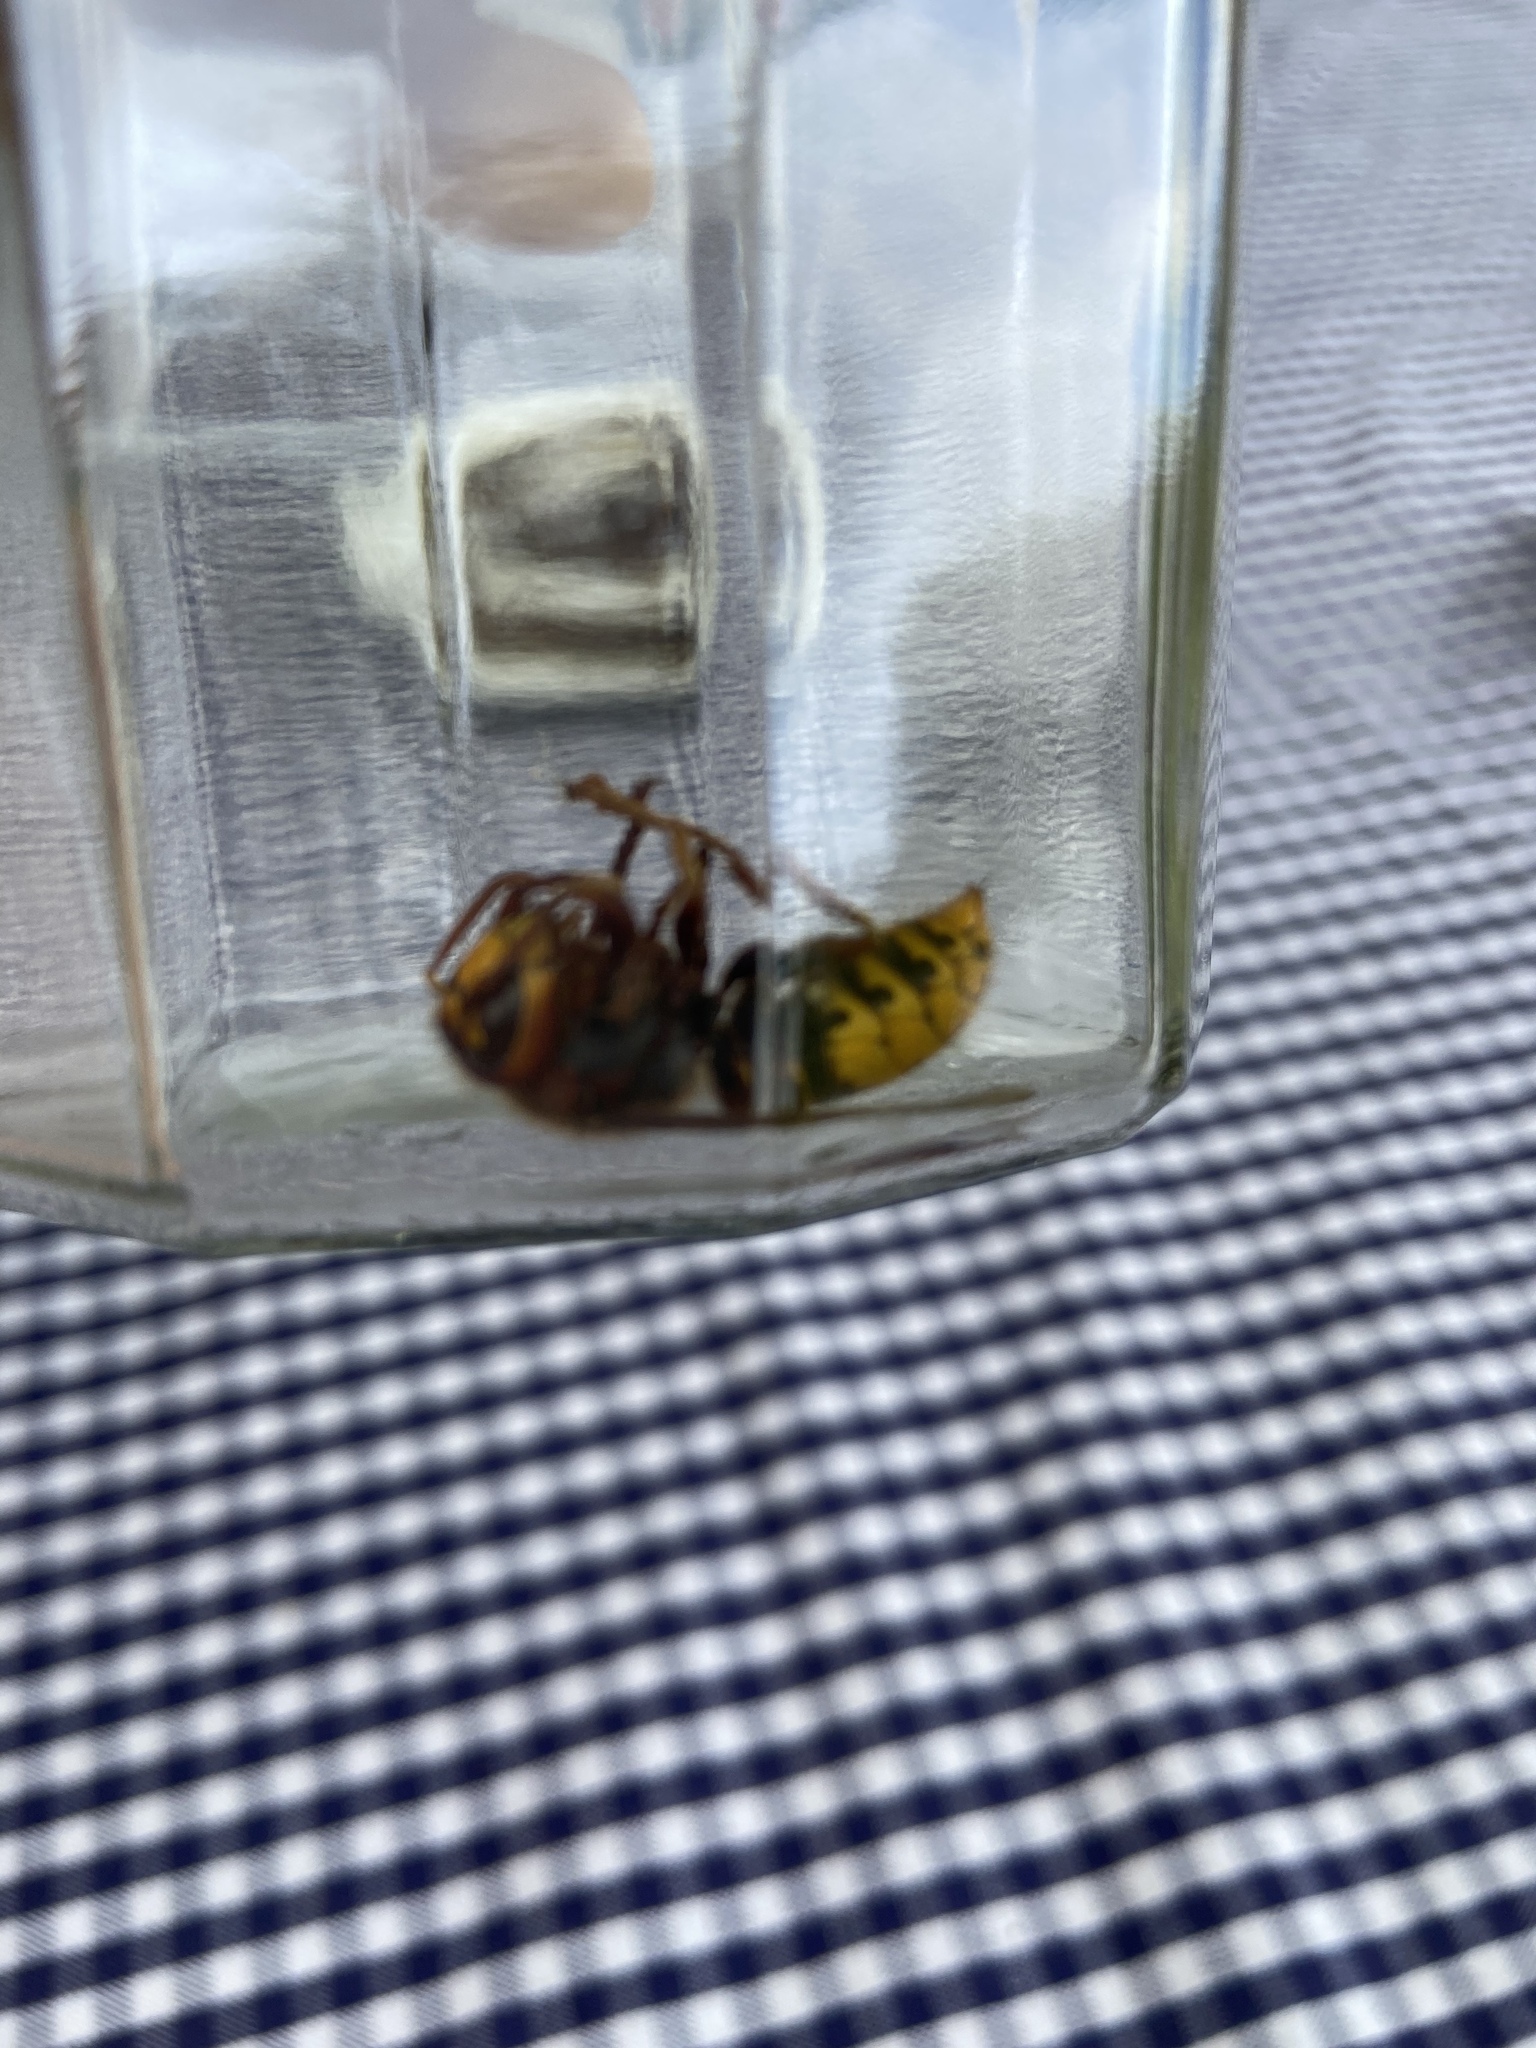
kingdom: Animalia
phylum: Arthropoda
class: Insecta
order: Hymenoptera
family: Vespidae
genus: Vespa
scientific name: Vespa crabro
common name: Hornet
